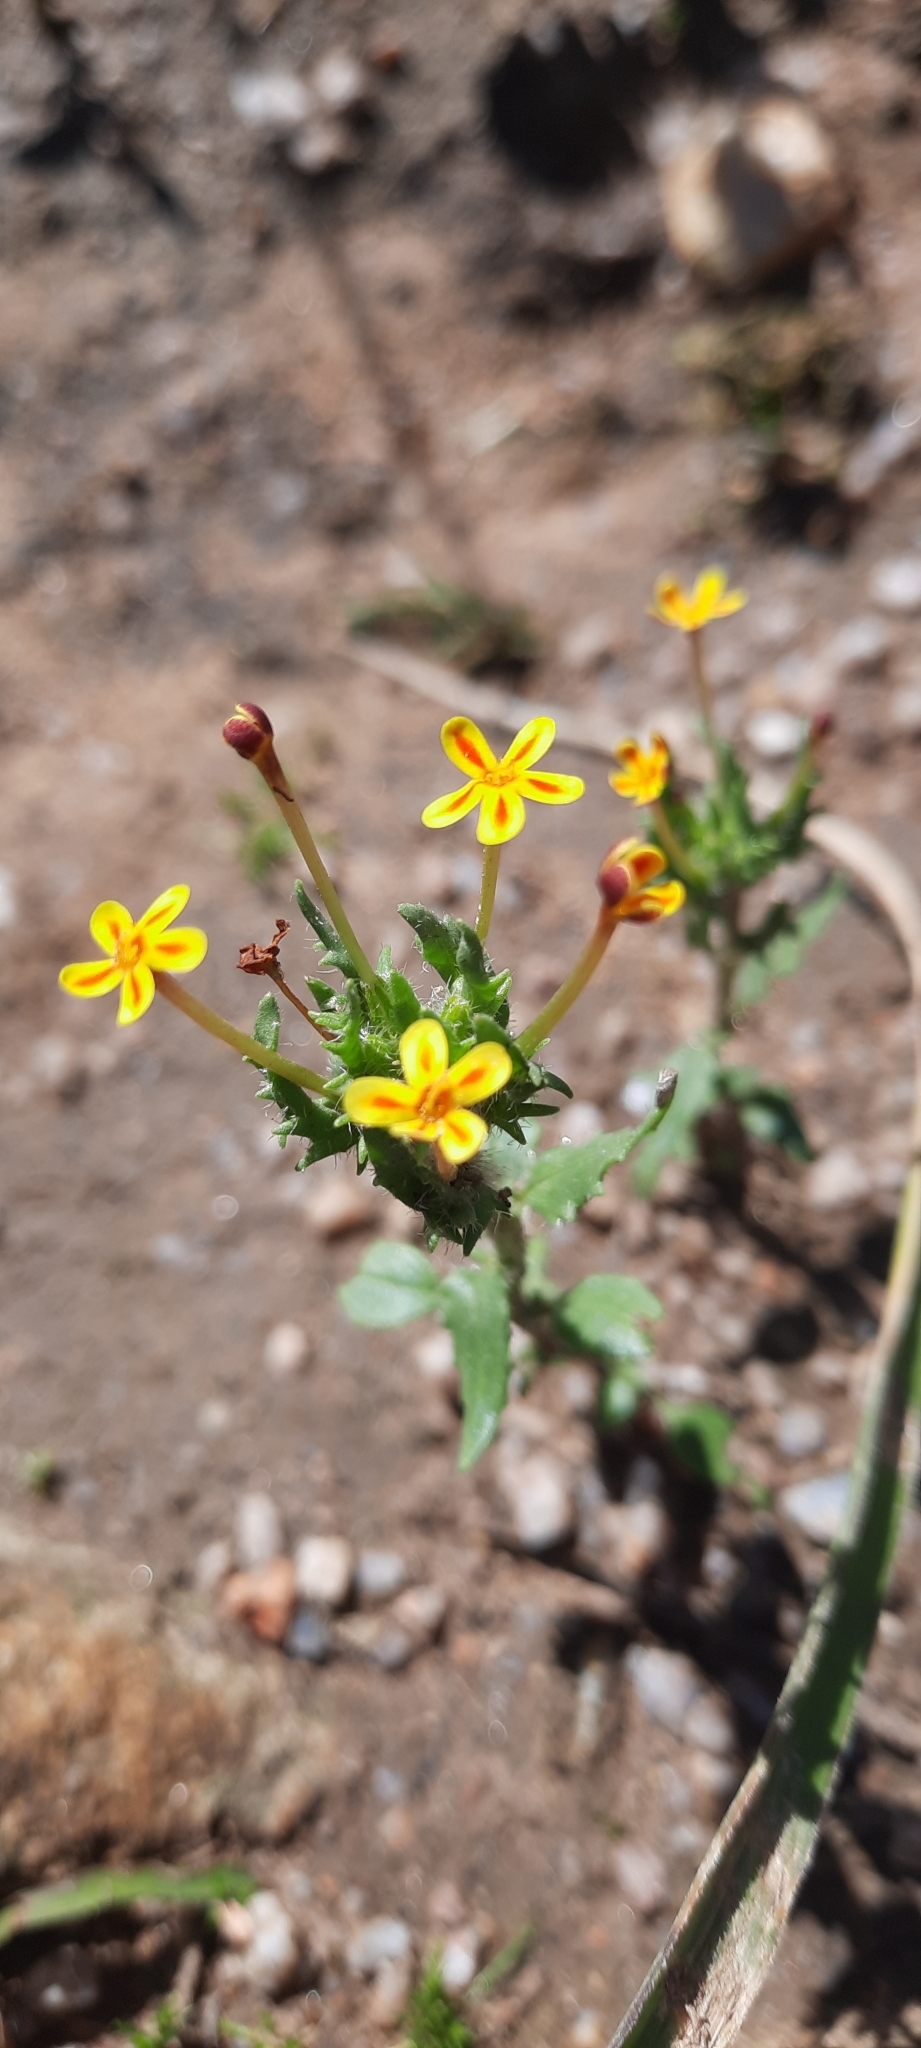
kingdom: Plantae
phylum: Tracheophyta
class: Magnoliopsida
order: Lamiales
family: Scrophulariaceae
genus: Zaluzianskya
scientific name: Zaluzianskya divaricata
